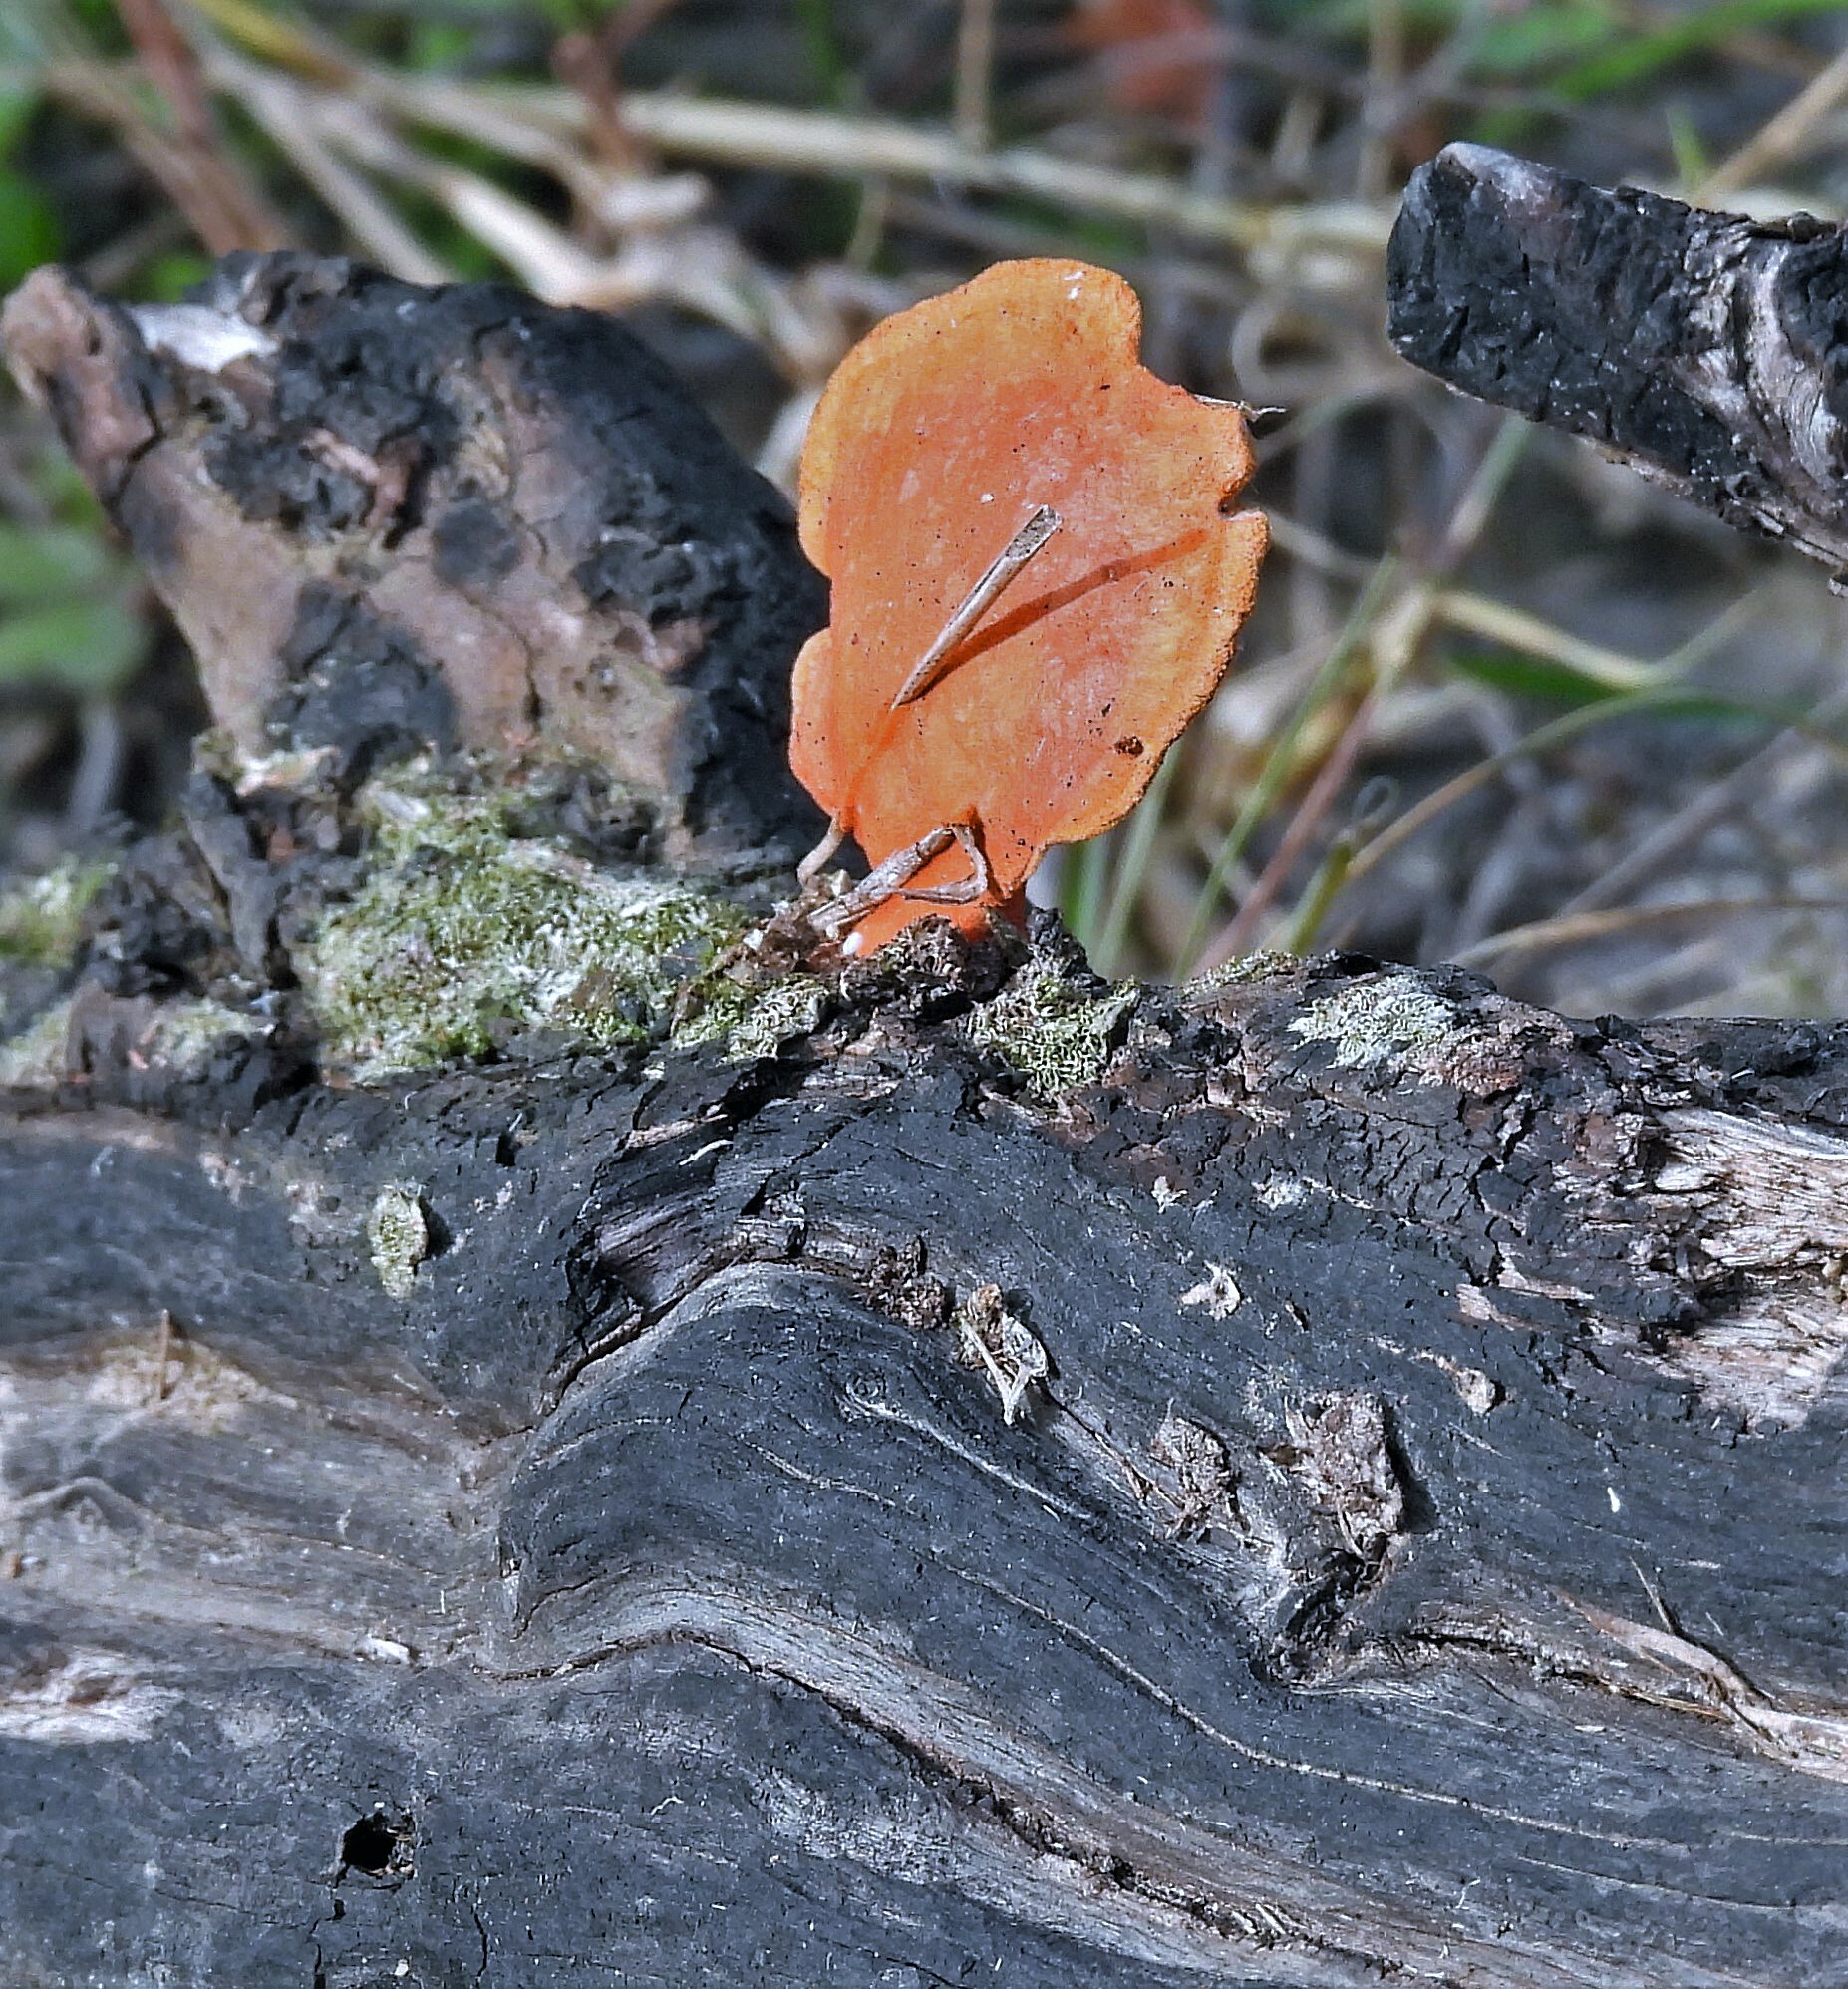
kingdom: Fungi
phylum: Basidiomycota
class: Agaricomycetes
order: Polyporales
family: Polyporaceae
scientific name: Polyporaceae
